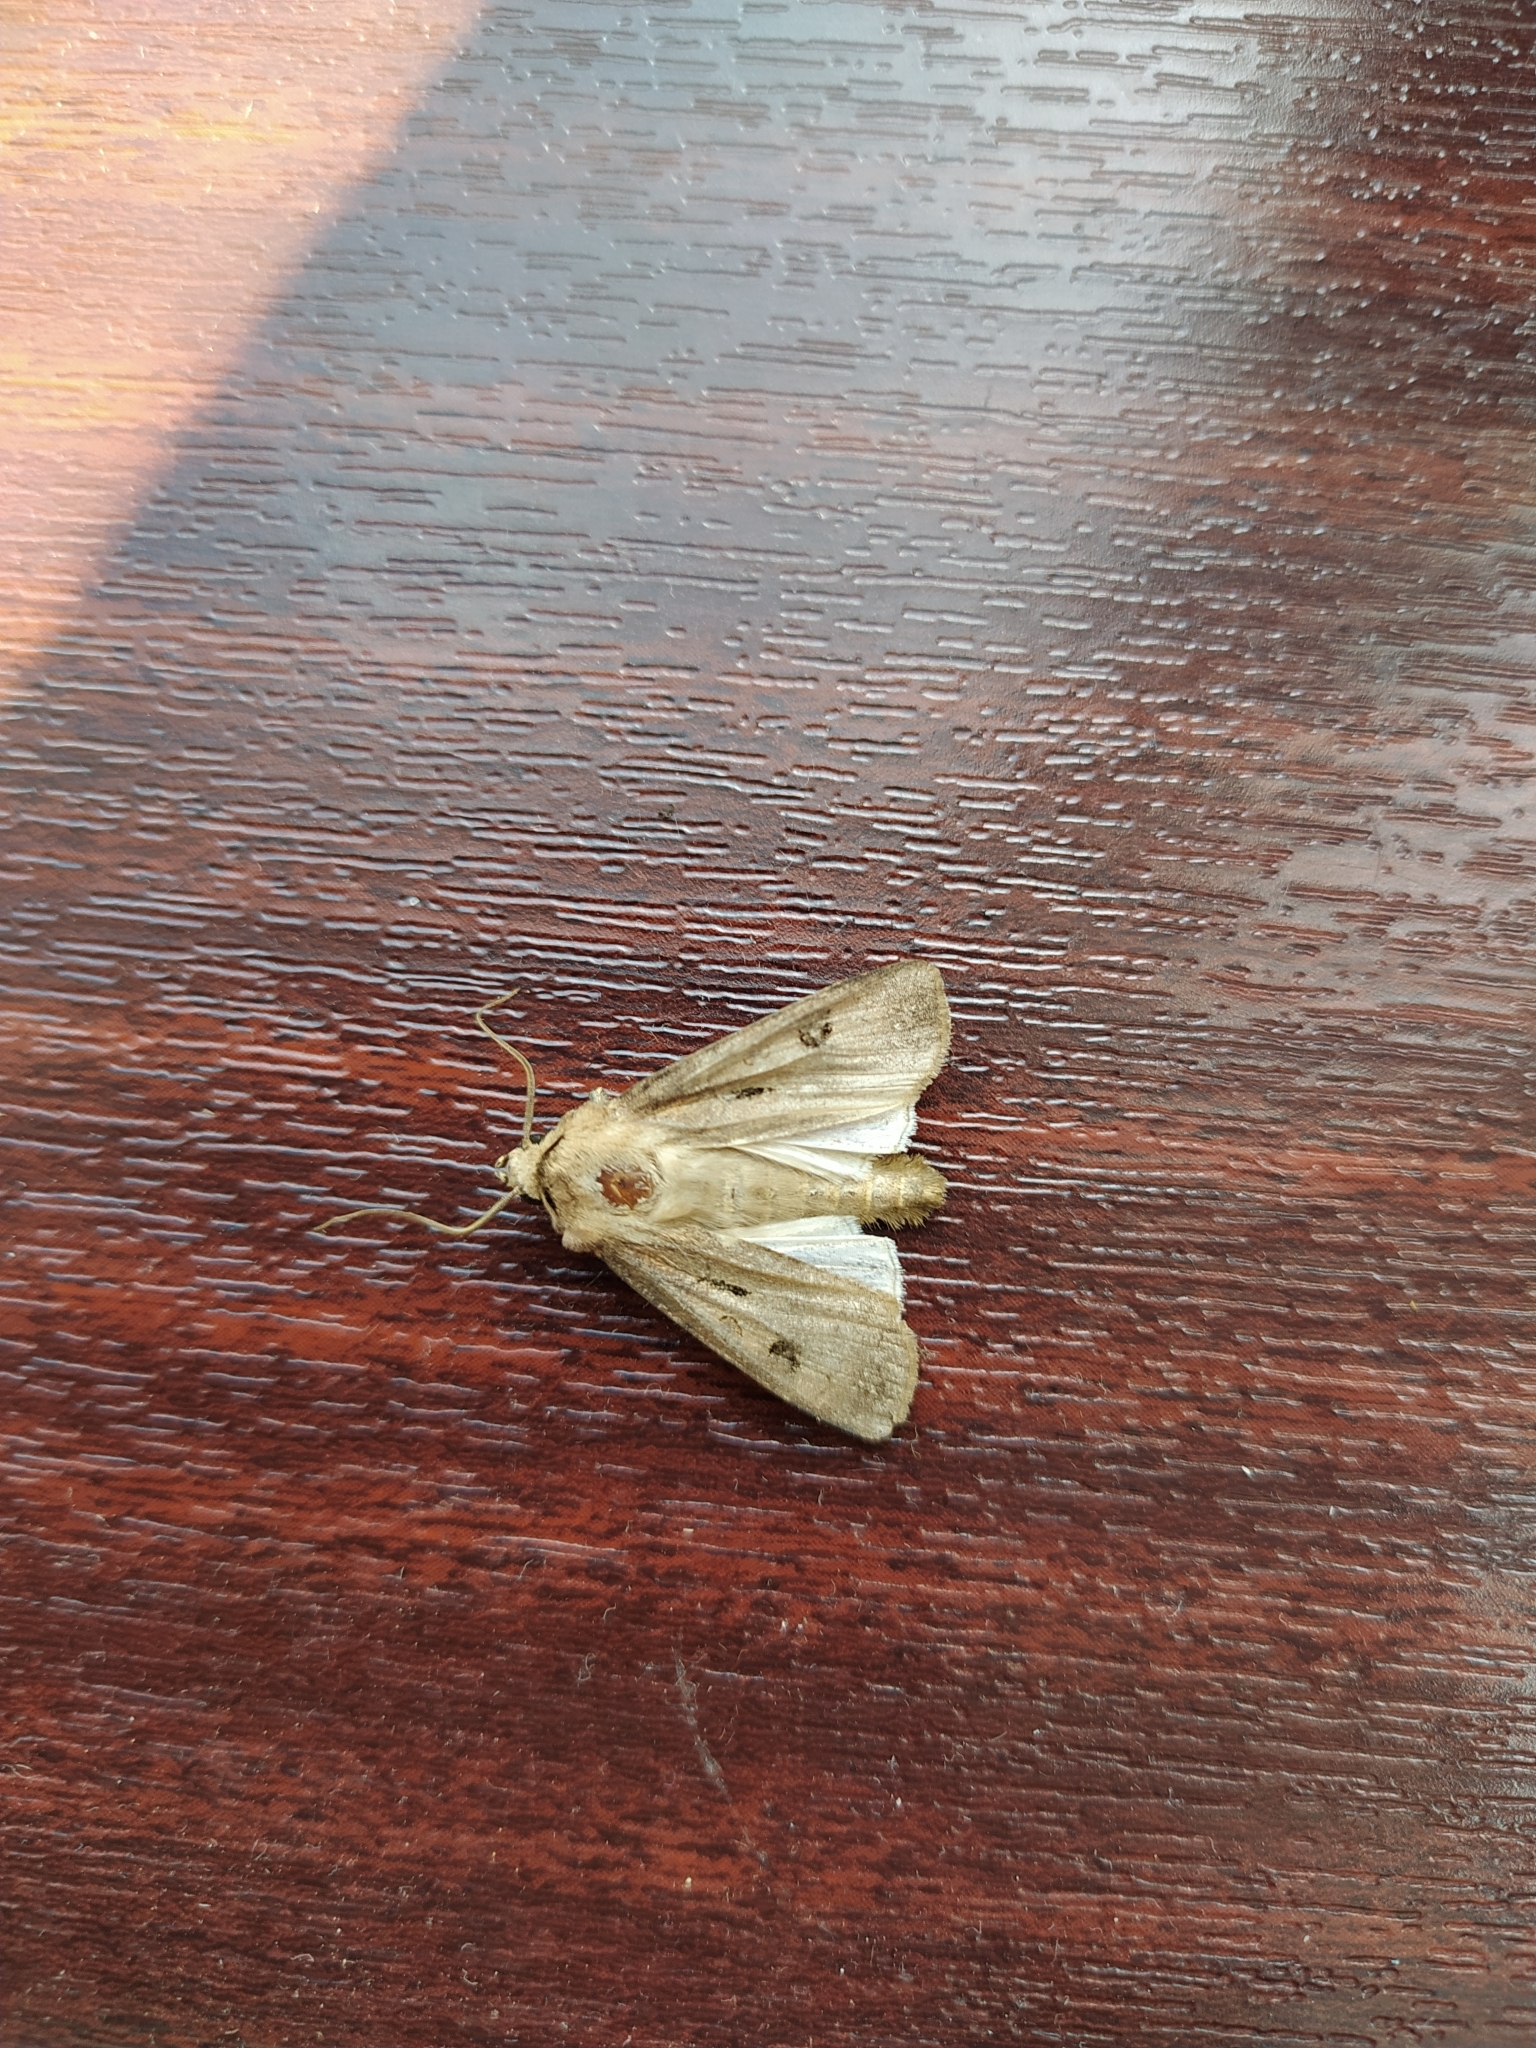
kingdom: Animalia
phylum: Arthropoda
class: Insecta
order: Lepidoptera
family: Noctuidae
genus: Agrotis
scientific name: Agrotis exclamationis
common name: Heart and dart
